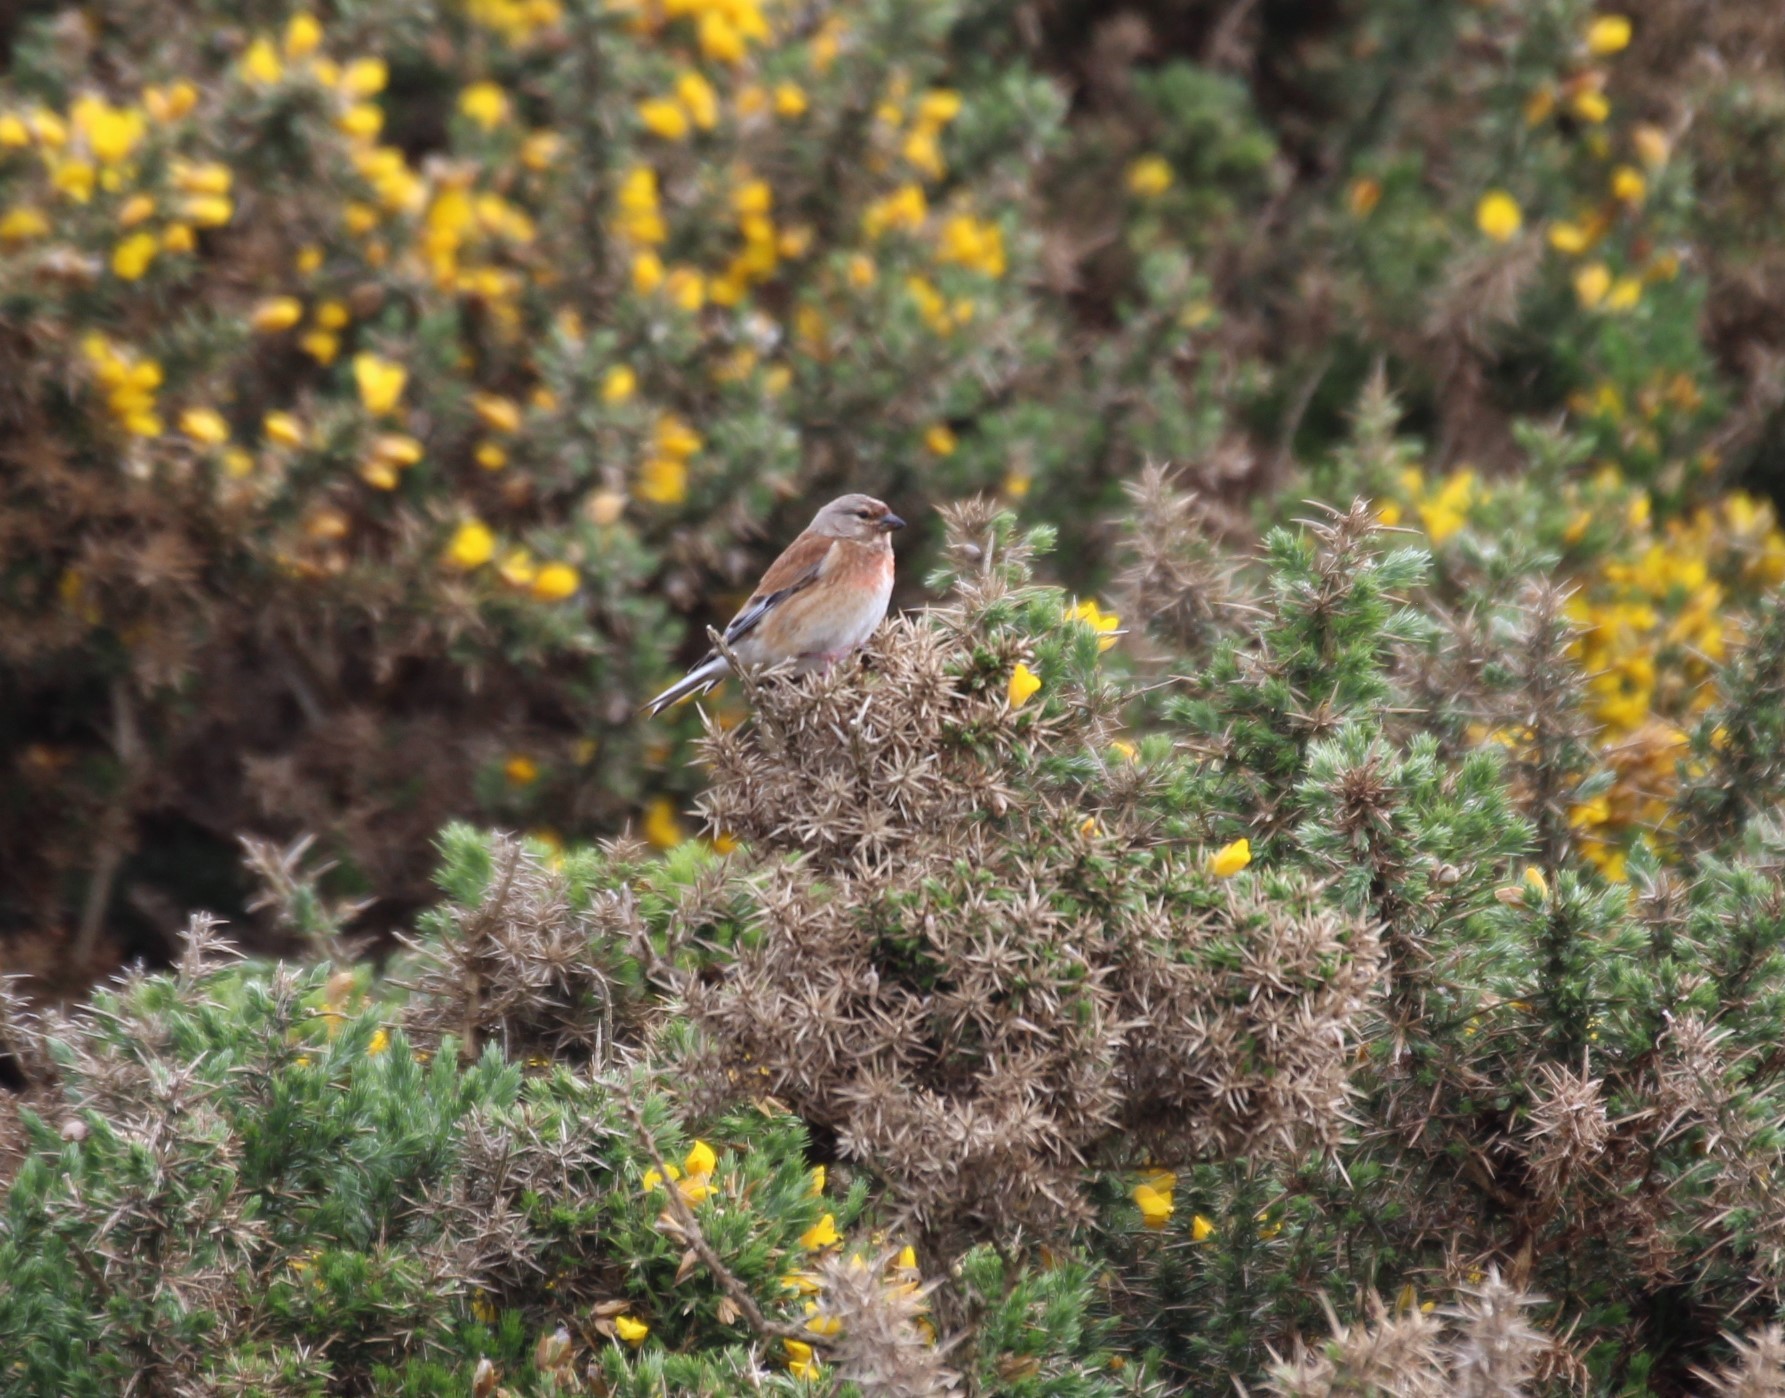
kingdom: Animalia
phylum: Chordata
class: Aves
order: Passeriformes
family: Fringillidae
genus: Linaria
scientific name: Linaria cannabina
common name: Common linnet
